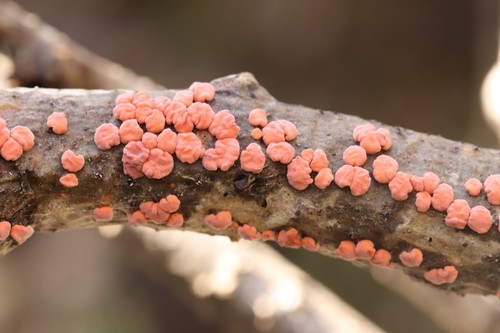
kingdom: Fungi
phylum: Basidiomycota
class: Agaricomycetes
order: Russulales
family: Peniophoraceae
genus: Peniophora
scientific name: Peniophora rufa
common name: Red tree brain fungus
